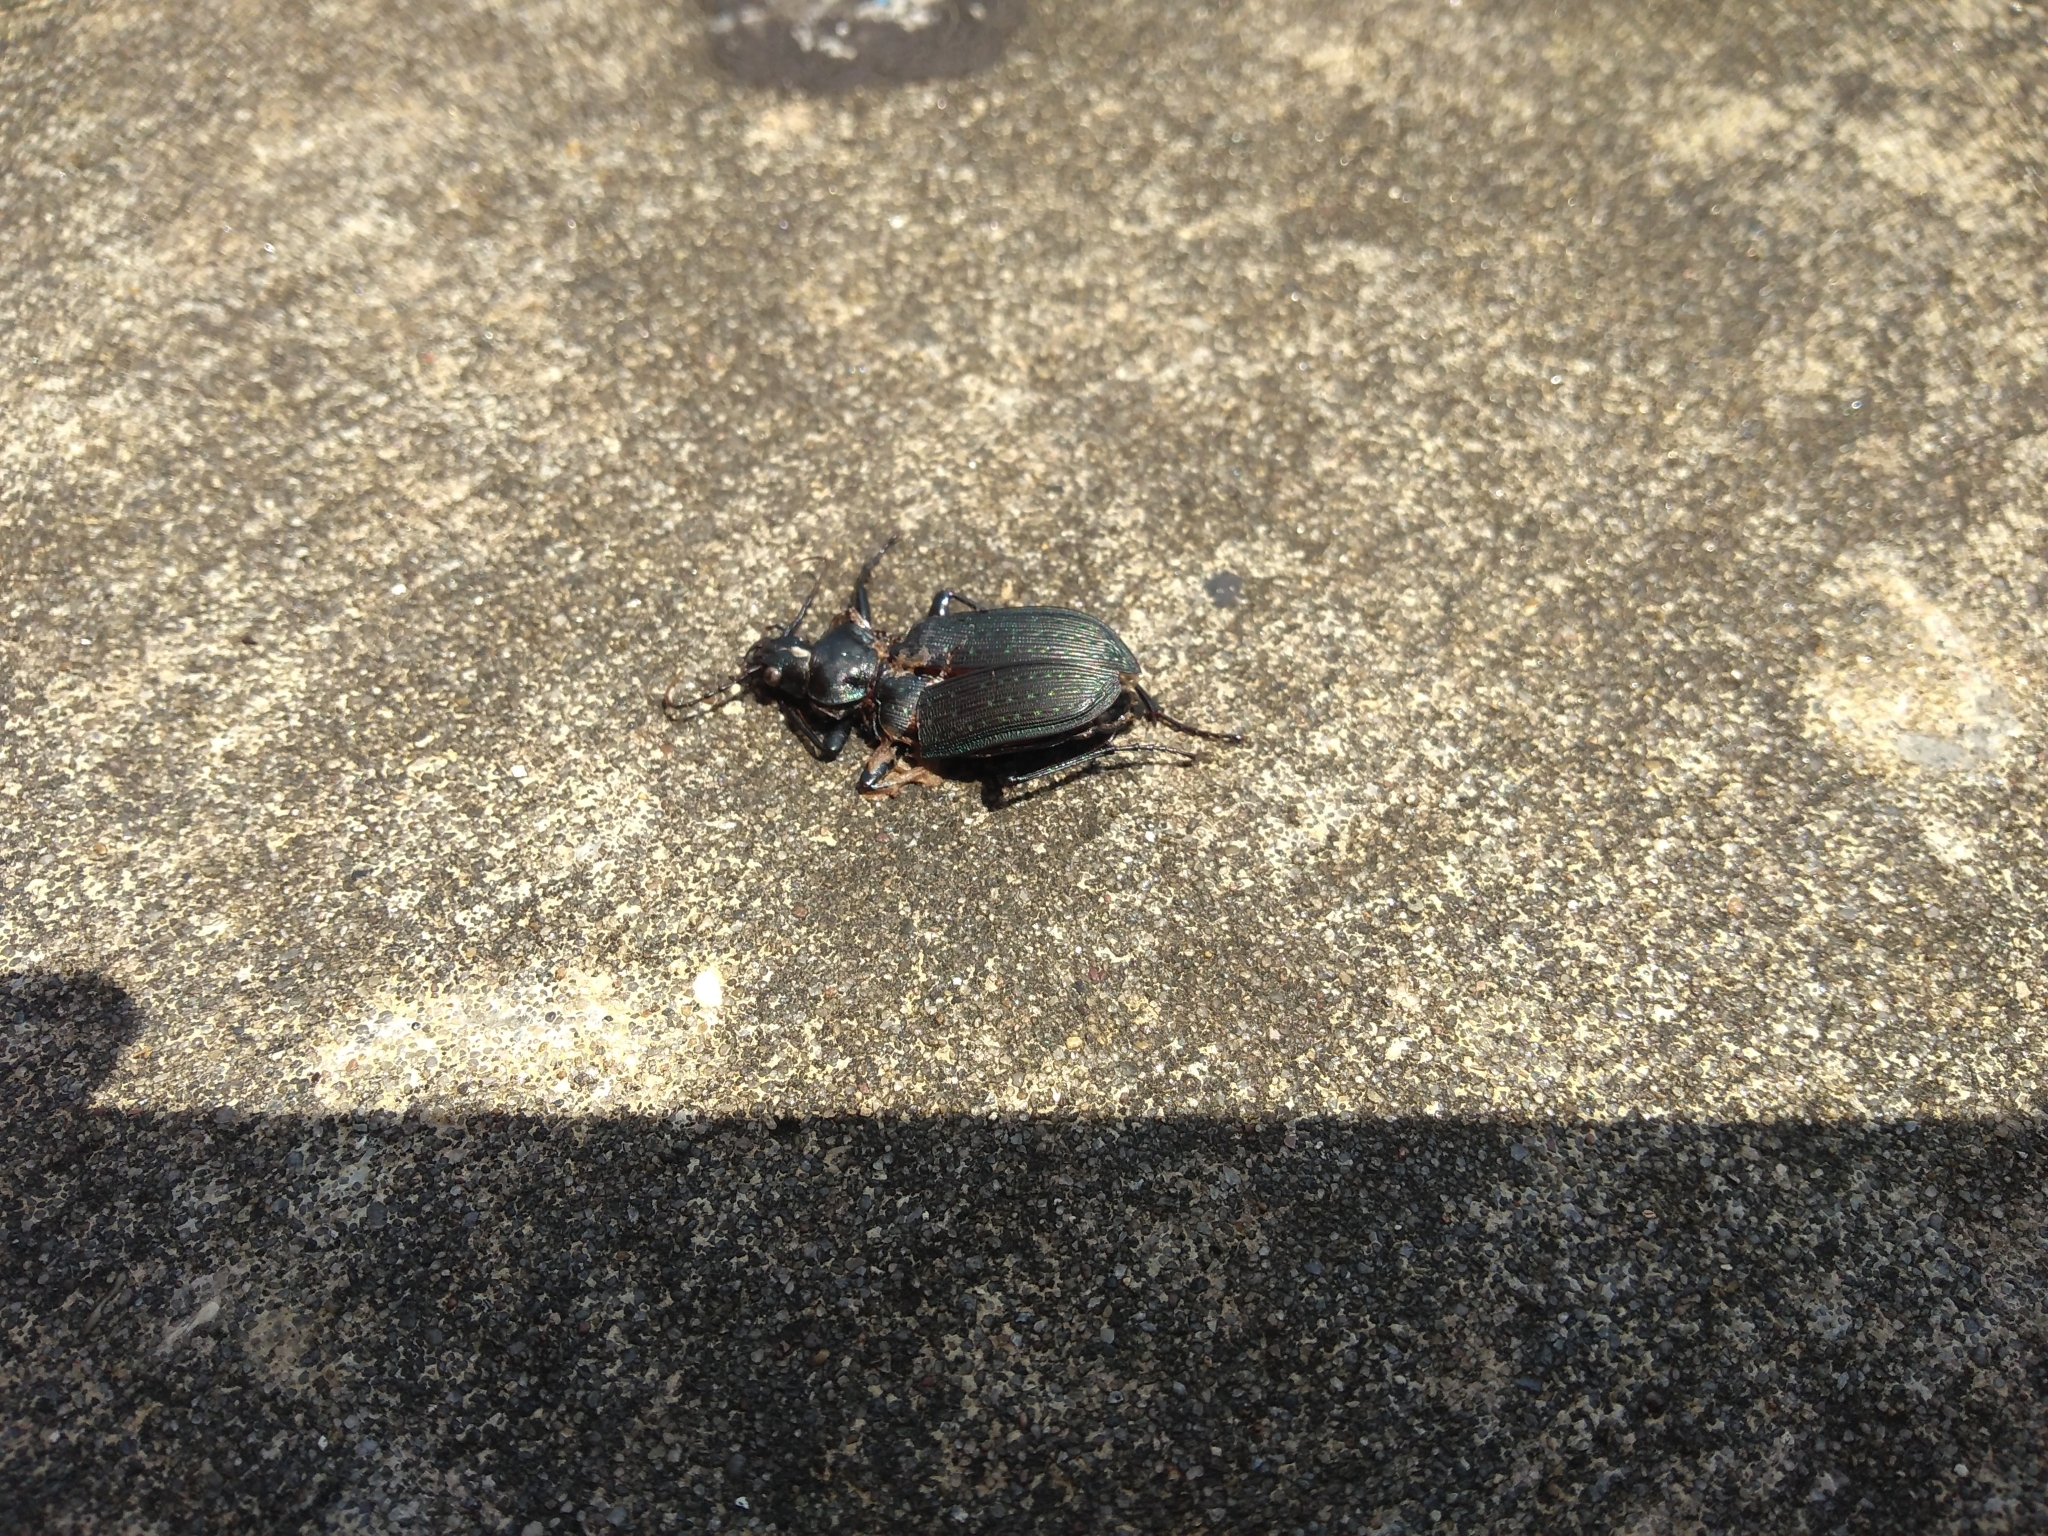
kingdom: Animalia
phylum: Arthropoda
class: Insecta
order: Coleoptera
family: Carabidae
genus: Calosoma
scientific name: Calosoma sayi
